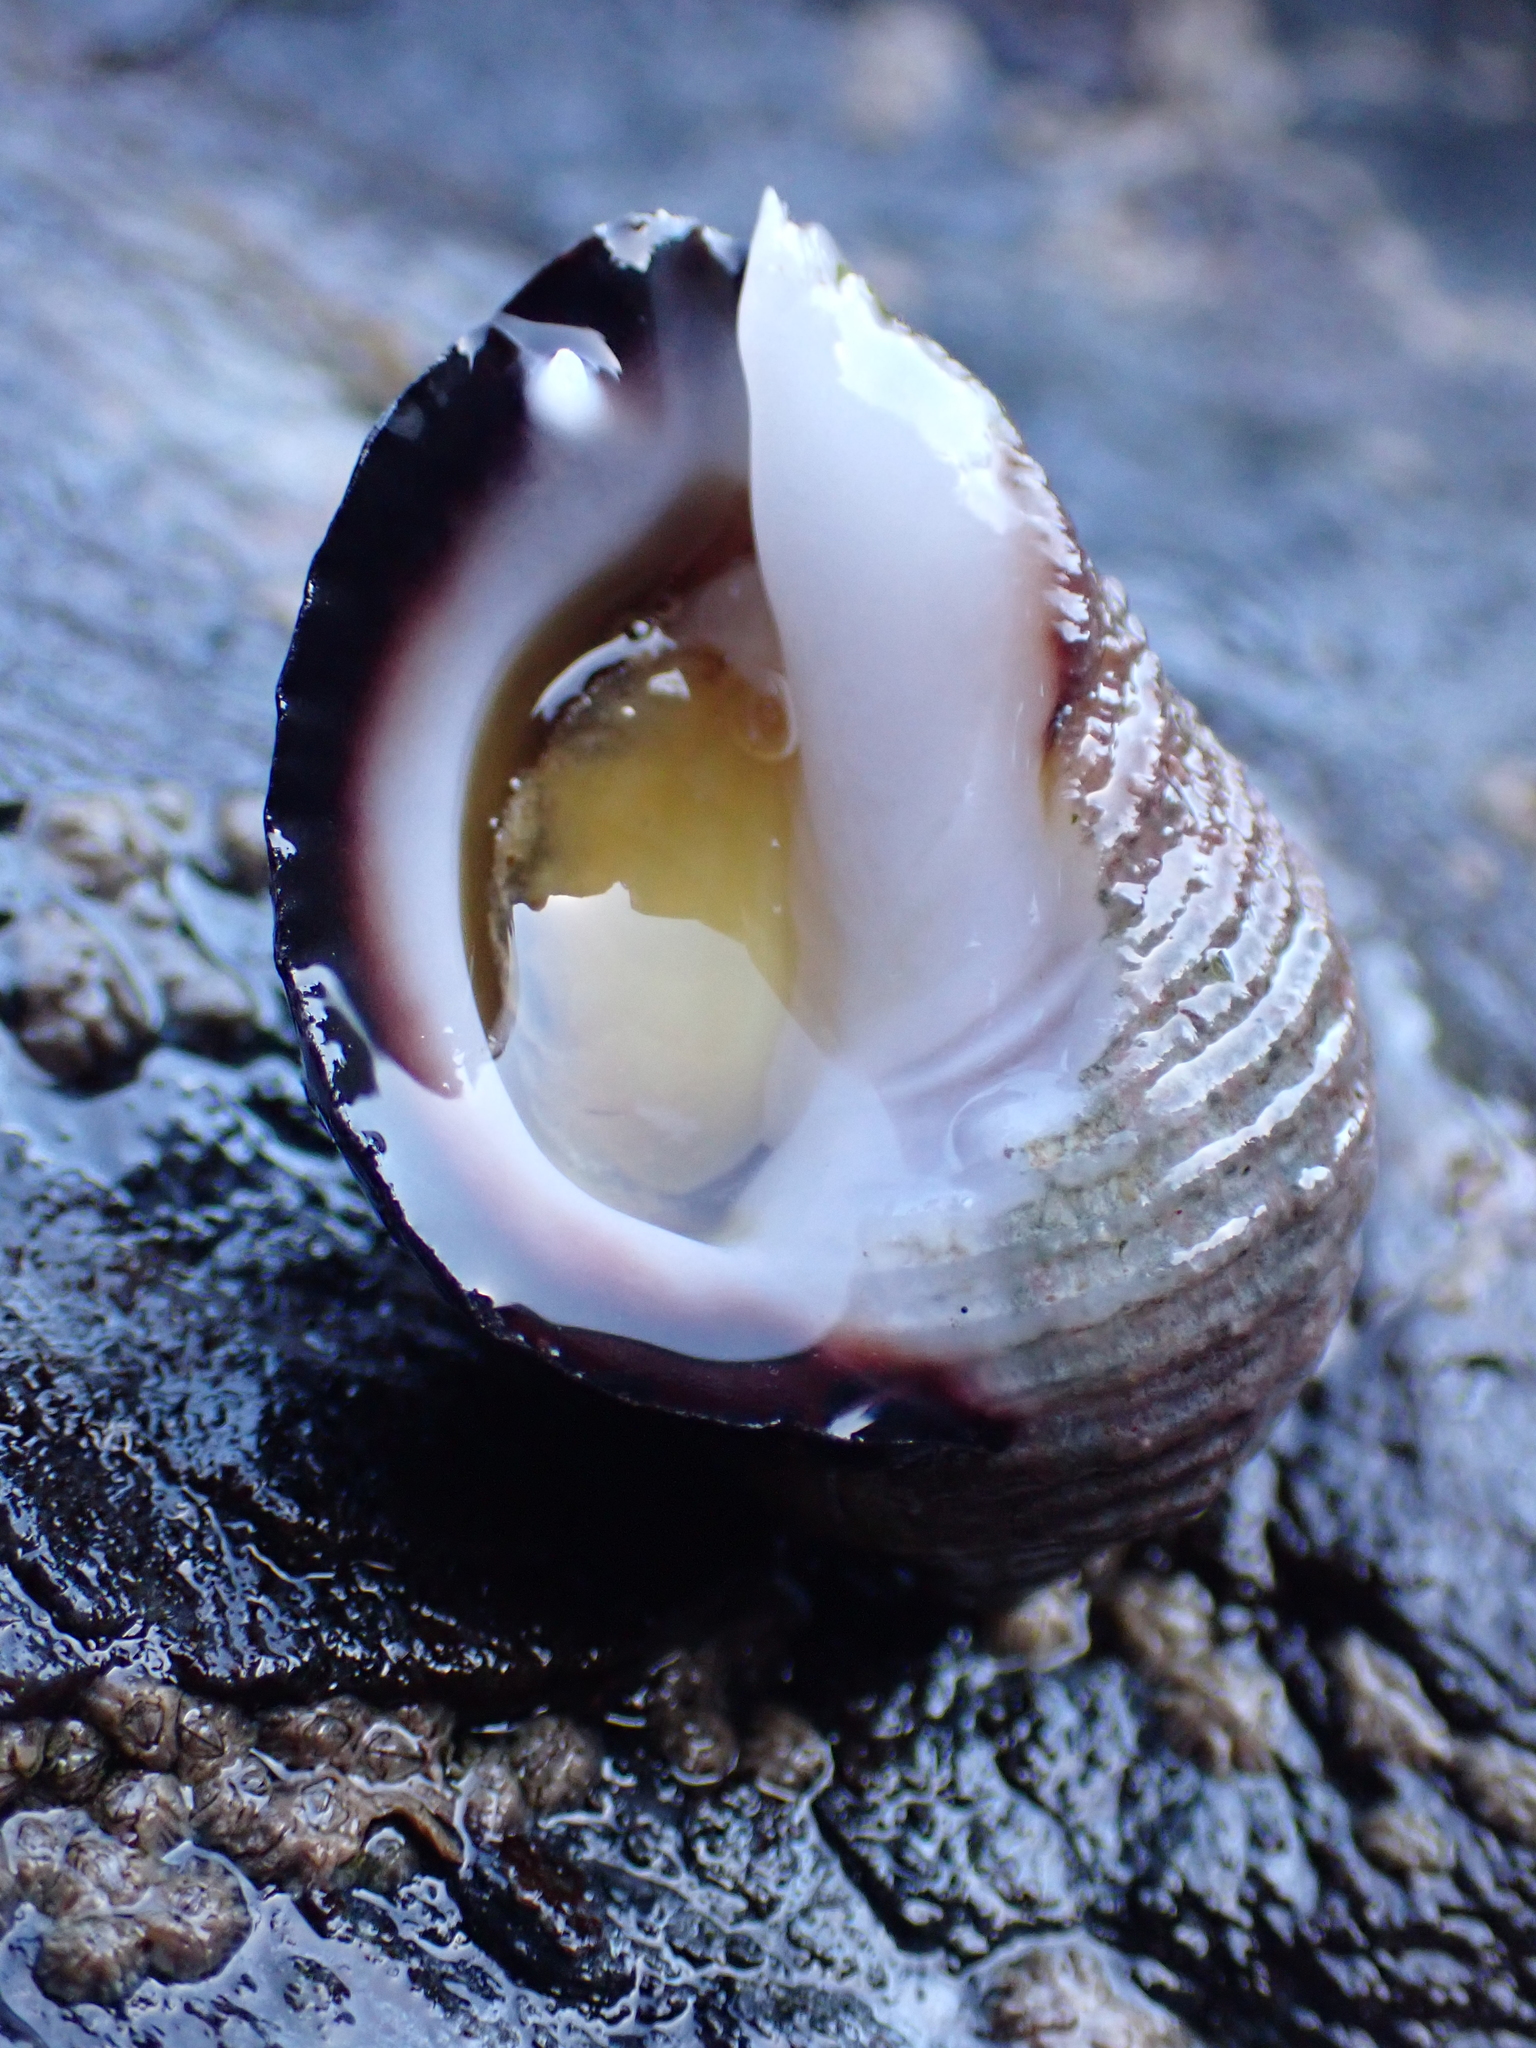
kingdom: Animalia
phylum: Mollusca
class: Gastropoda
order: Neogastropoda
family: Muricidae
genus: Acanthina
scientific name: Acanthina monodon
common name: One-toothed thais
